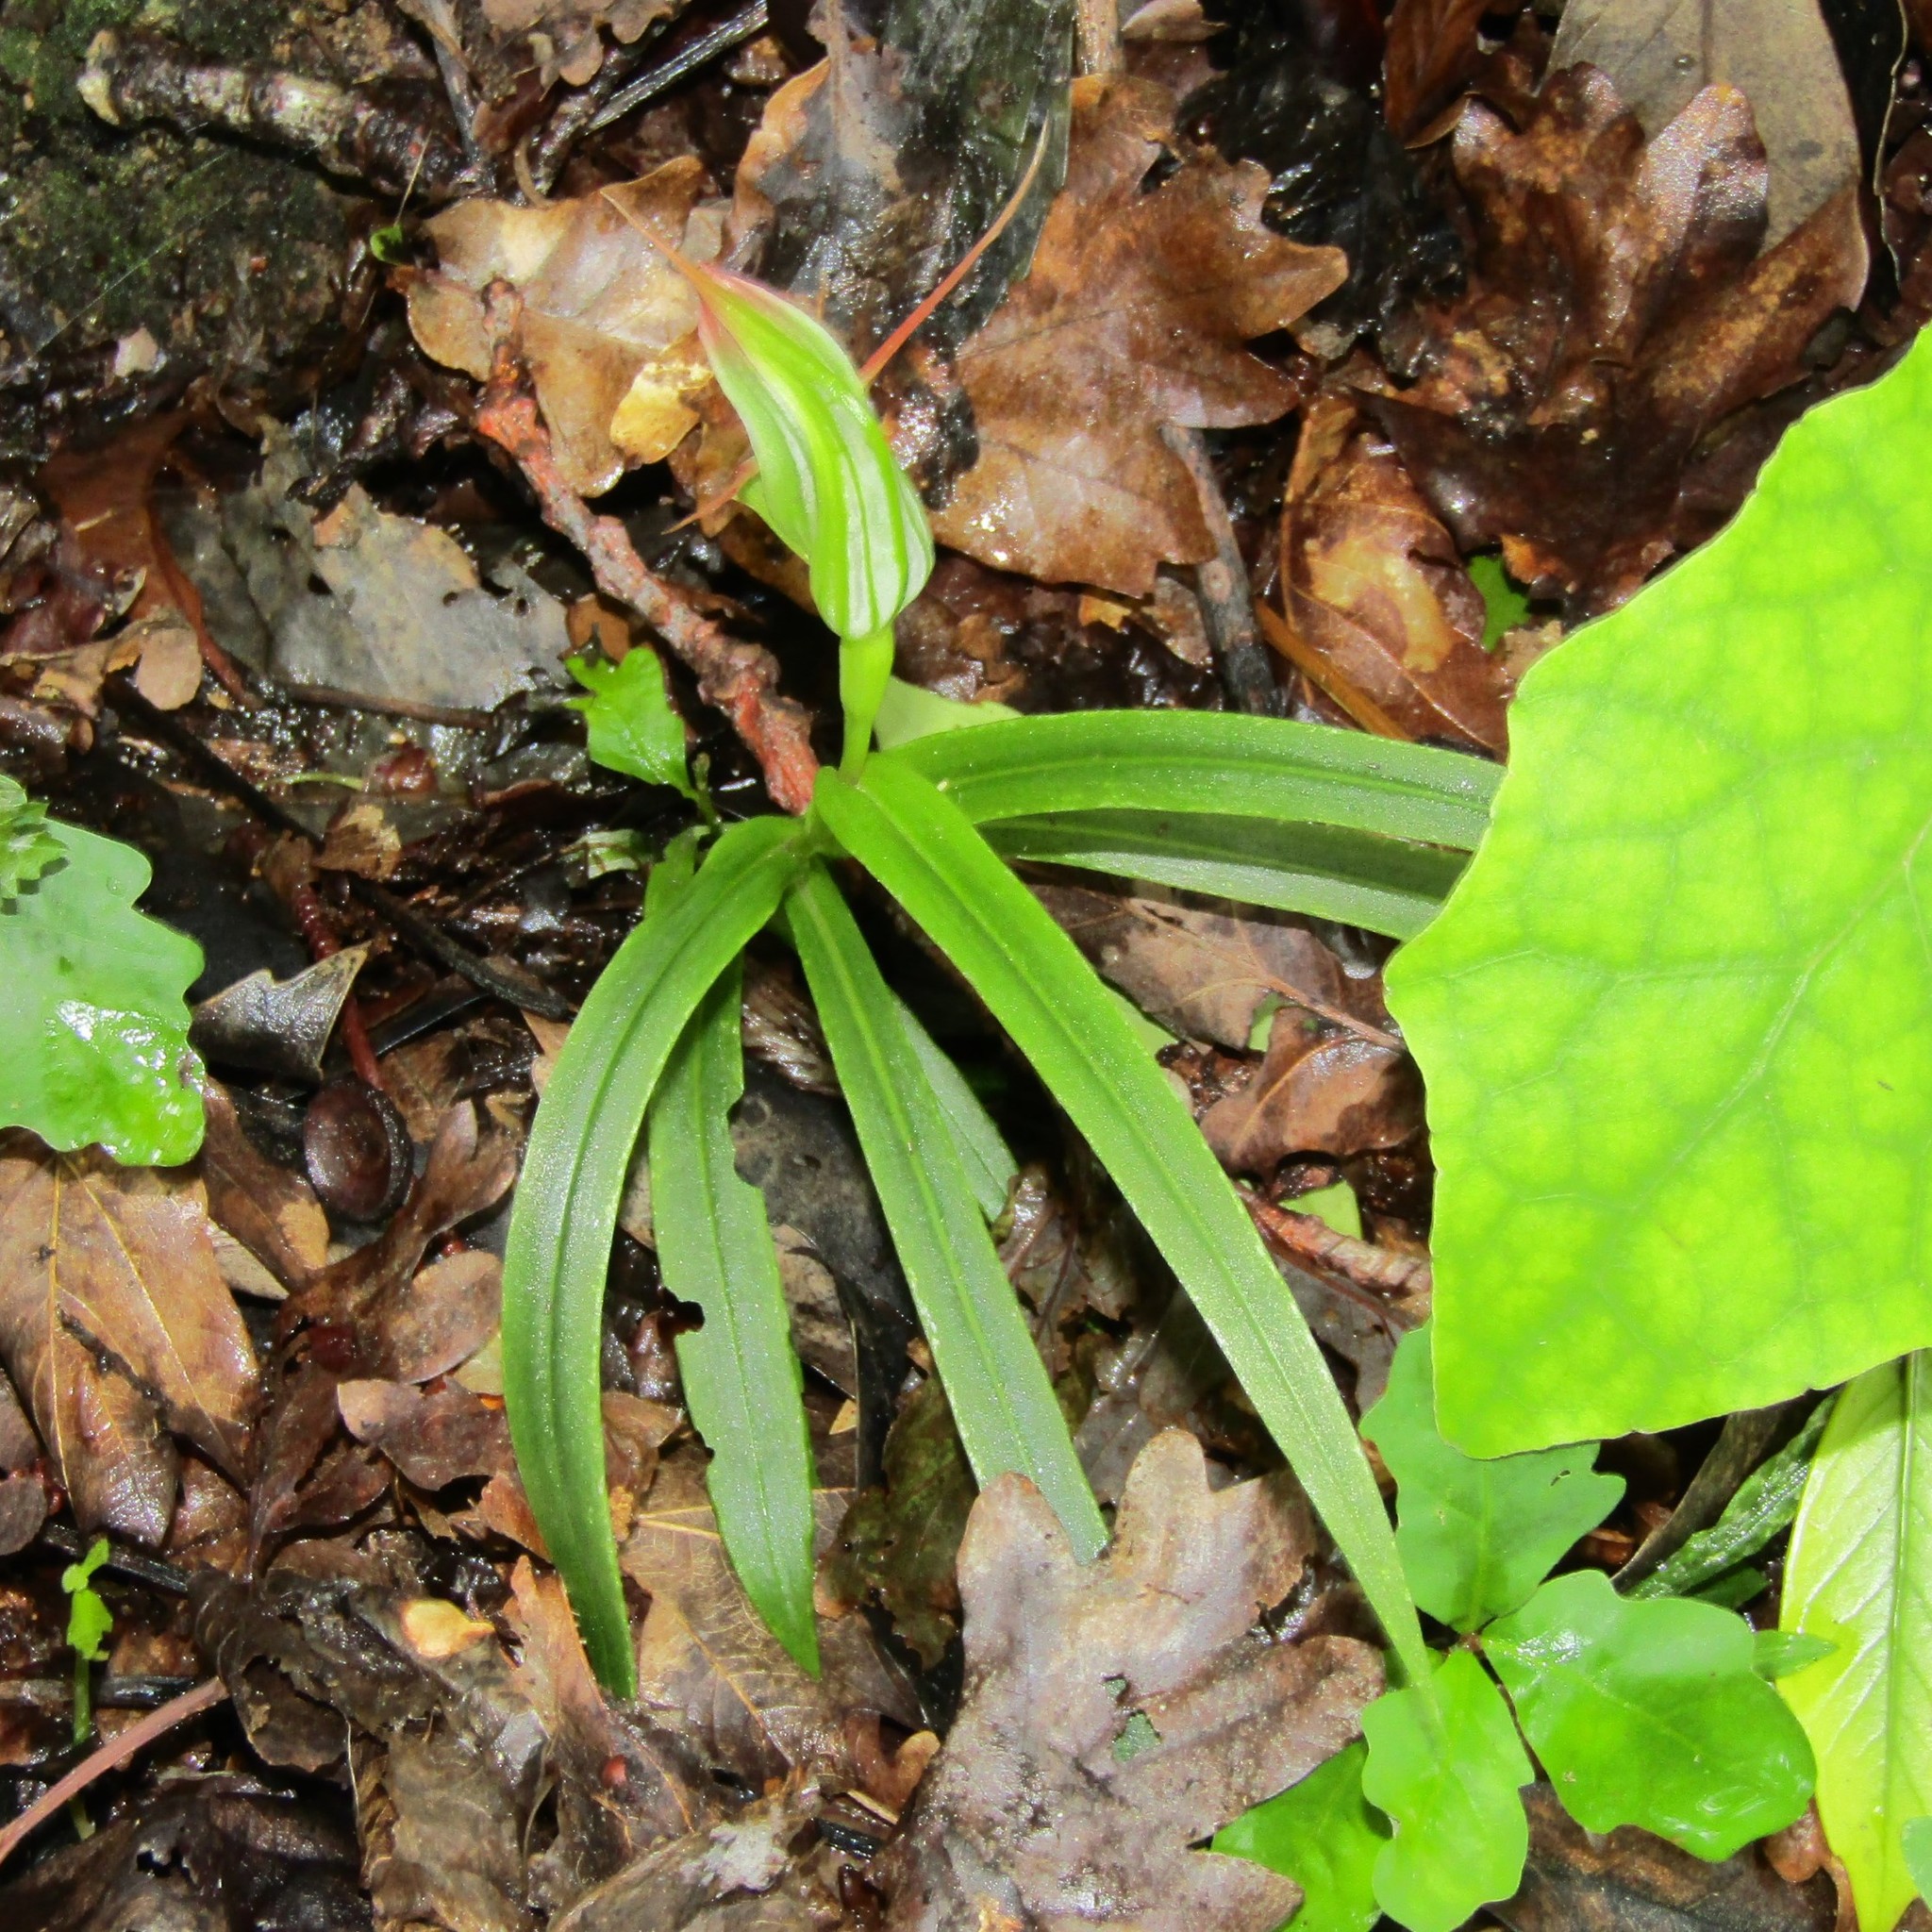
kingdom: Plantae
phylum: Tracheophyta
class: Liliopsida
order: Asparagales
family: Orchidaceae
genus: Pterostylis
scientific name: Pterostylis banksii
